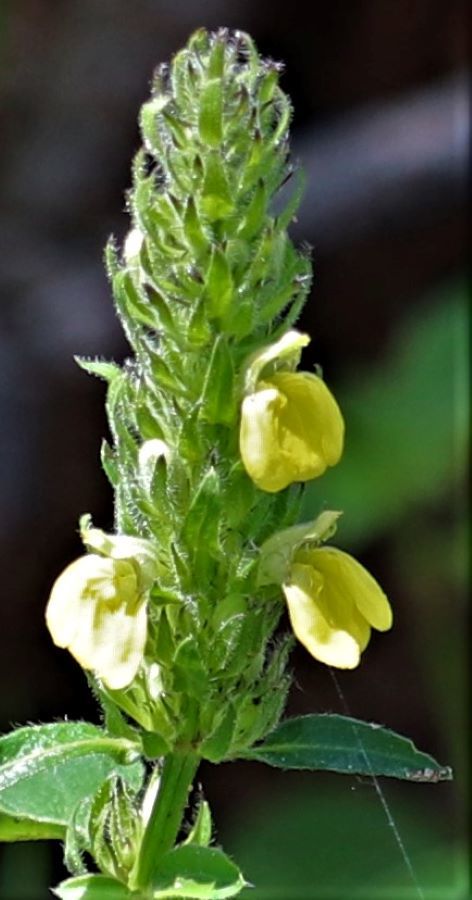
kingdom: Plantae
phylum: Tracheophyta
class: Magnoliopsida
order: Lamiales
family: Acanthaceae
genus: Justicia
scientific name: Justicia flava
